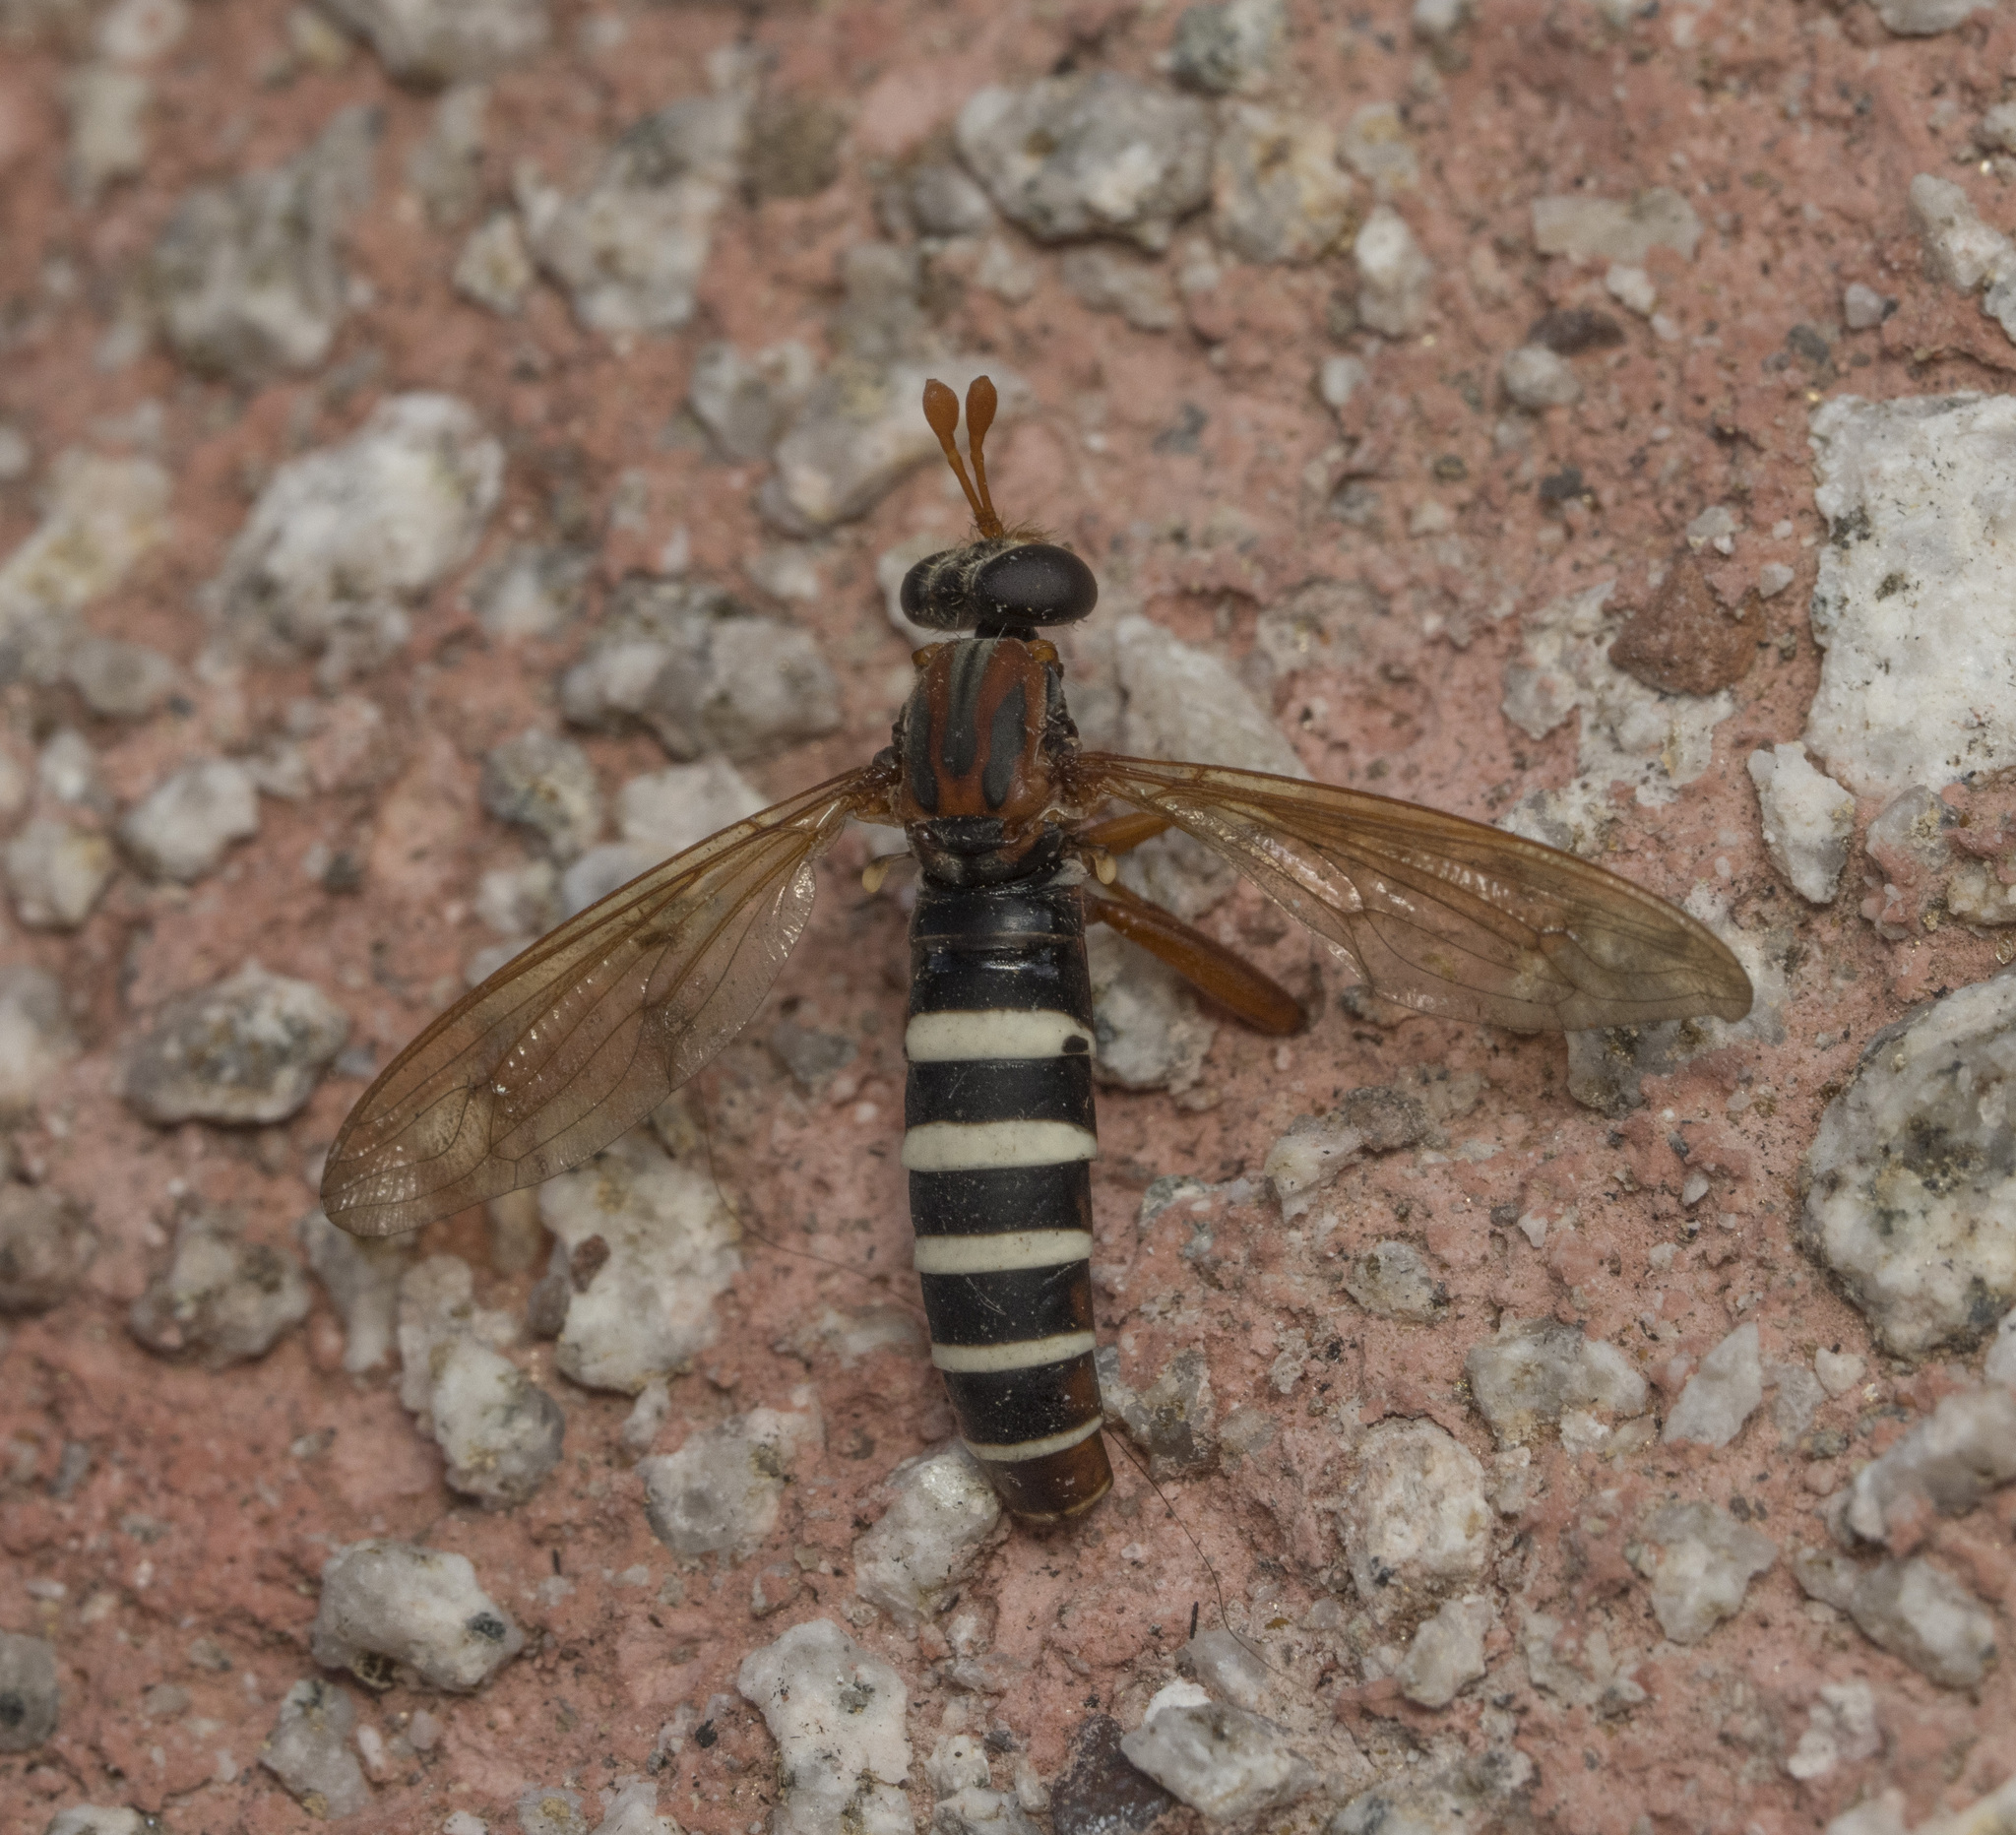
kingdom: Animalia
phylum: Arthropoda
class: Insecta
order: Diptera
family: Mydidae
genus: Apiophora
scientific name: Apiophora paulseni
